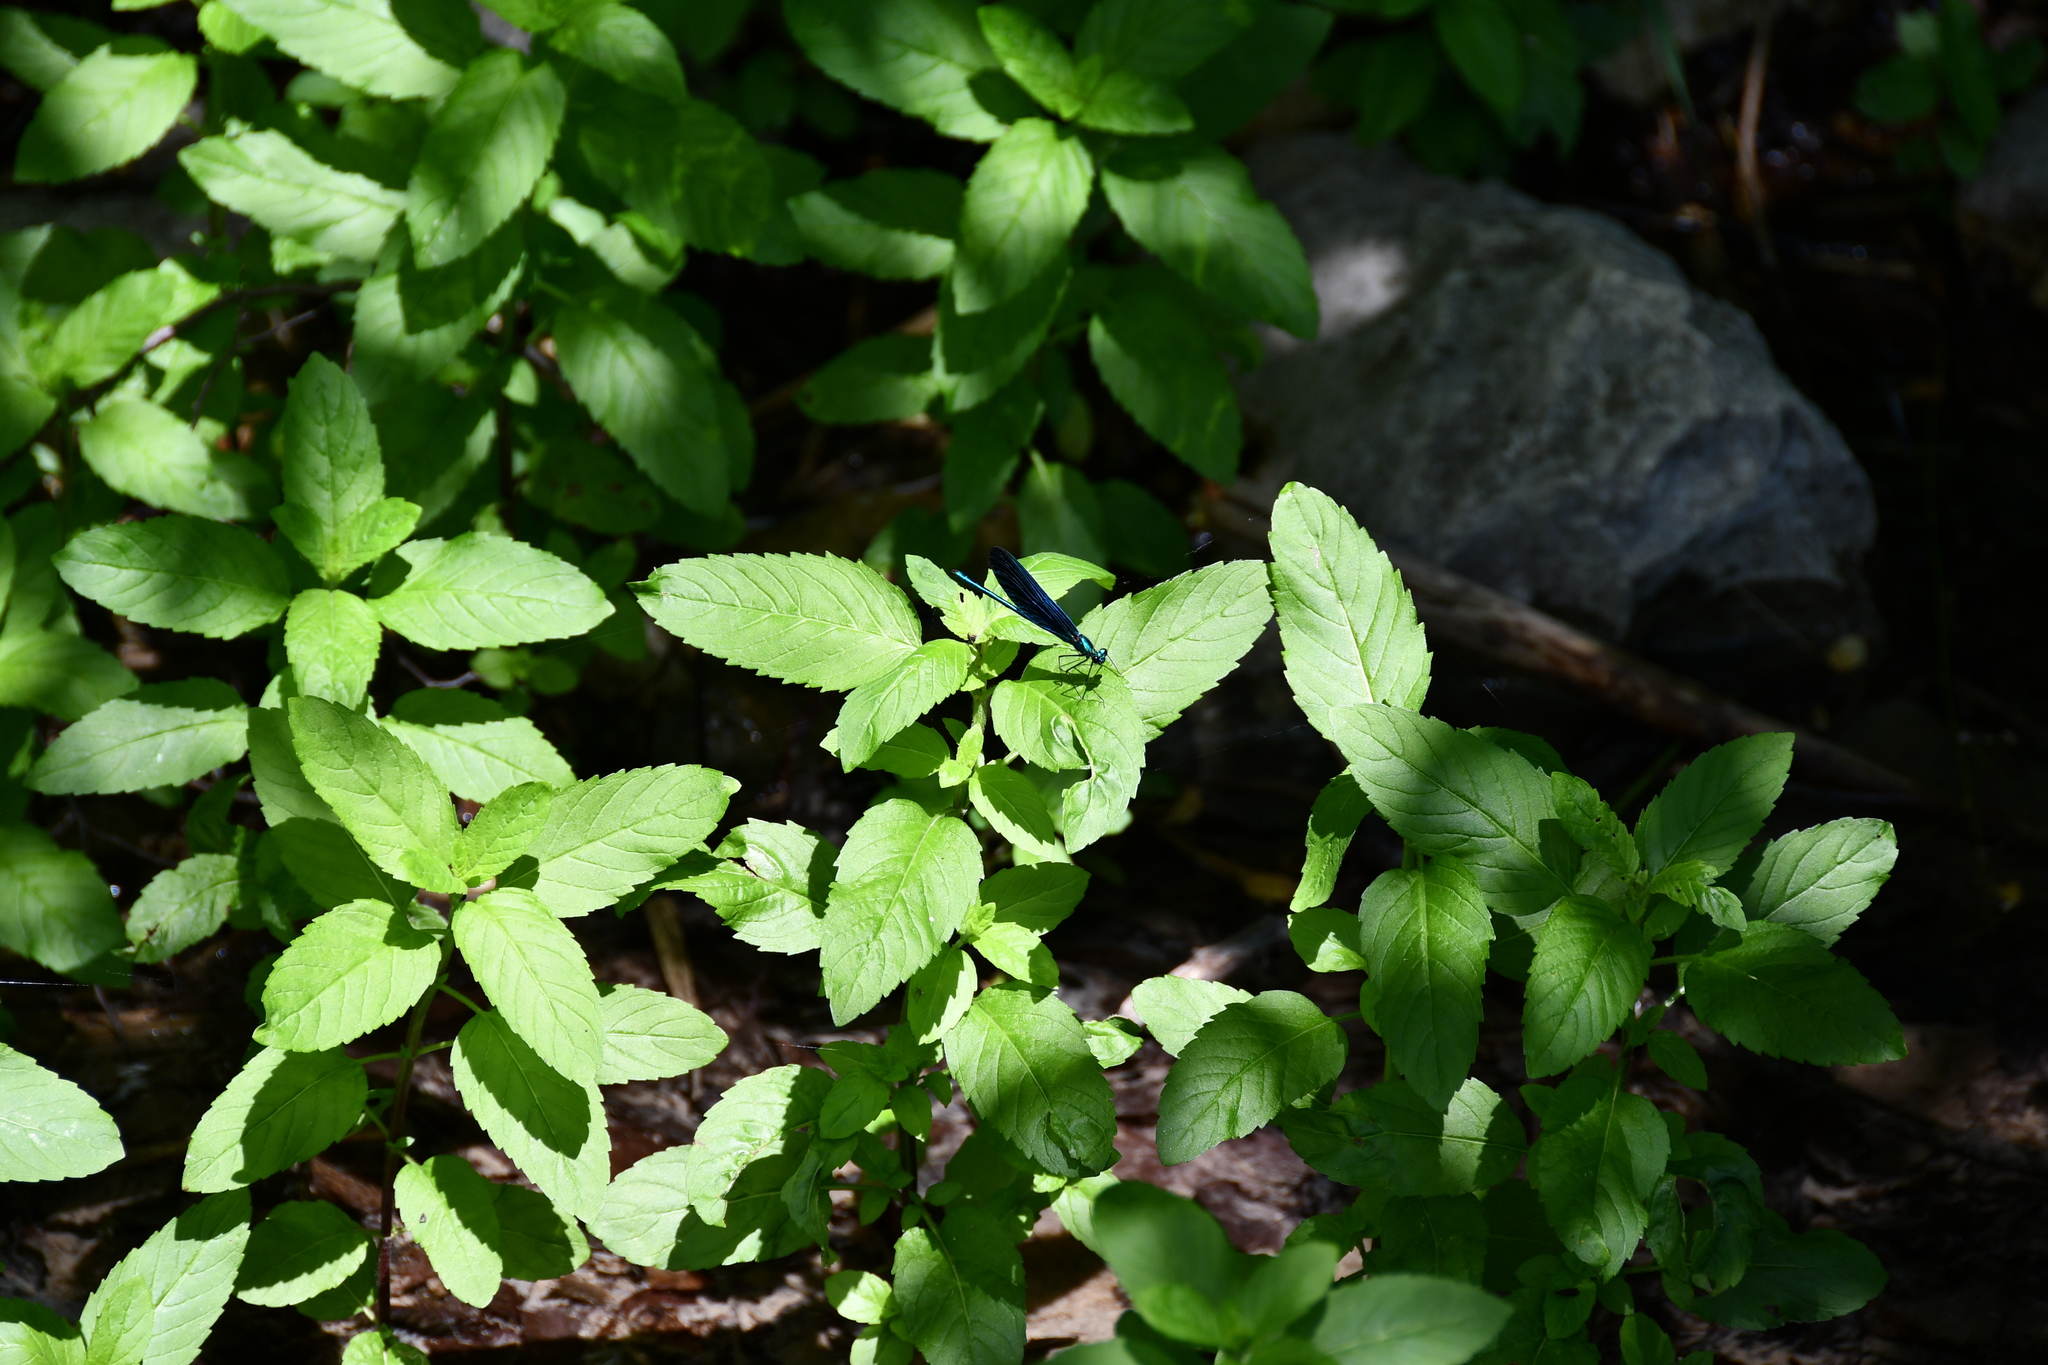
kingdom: Animalia
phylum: Arthropoda
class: Insecta
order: Odonata
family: Calopterygidae
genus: Calopteryx
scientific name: Calopteryx virgo
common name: Beautiful demoiselle
